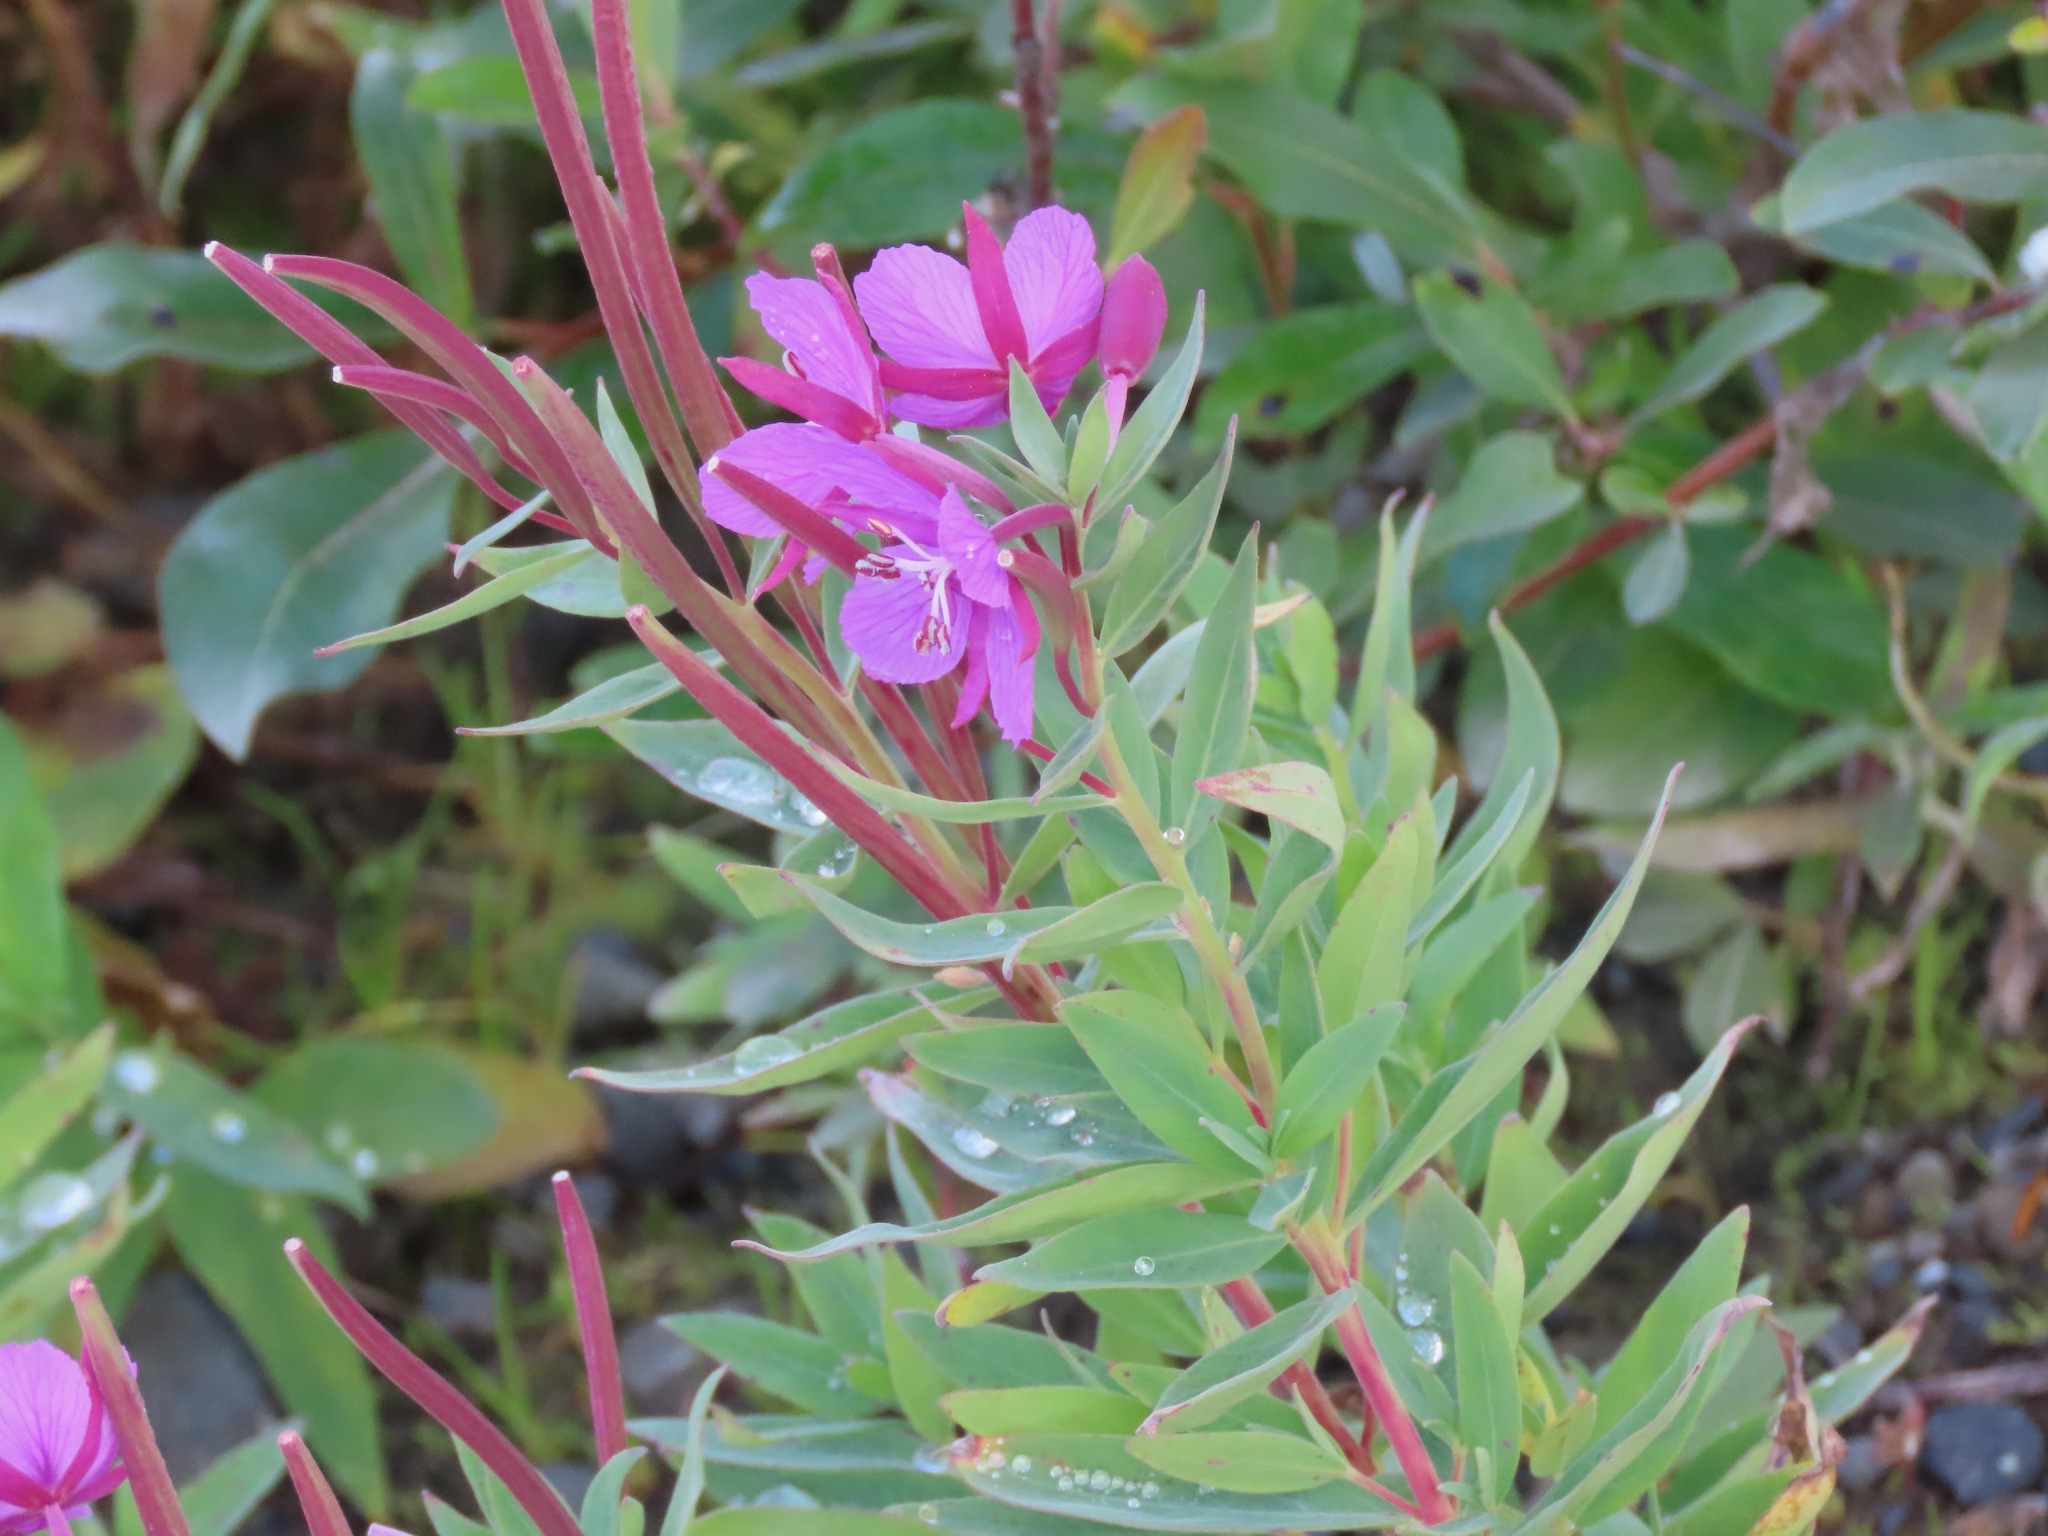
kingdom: Plantae
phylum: Tracheophyta
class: Magnoliopsida
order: Myrtales
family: Onagraceae
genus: Chamaenerion
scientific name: Chamaenerion latifolium
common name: Dwarf fireweed
